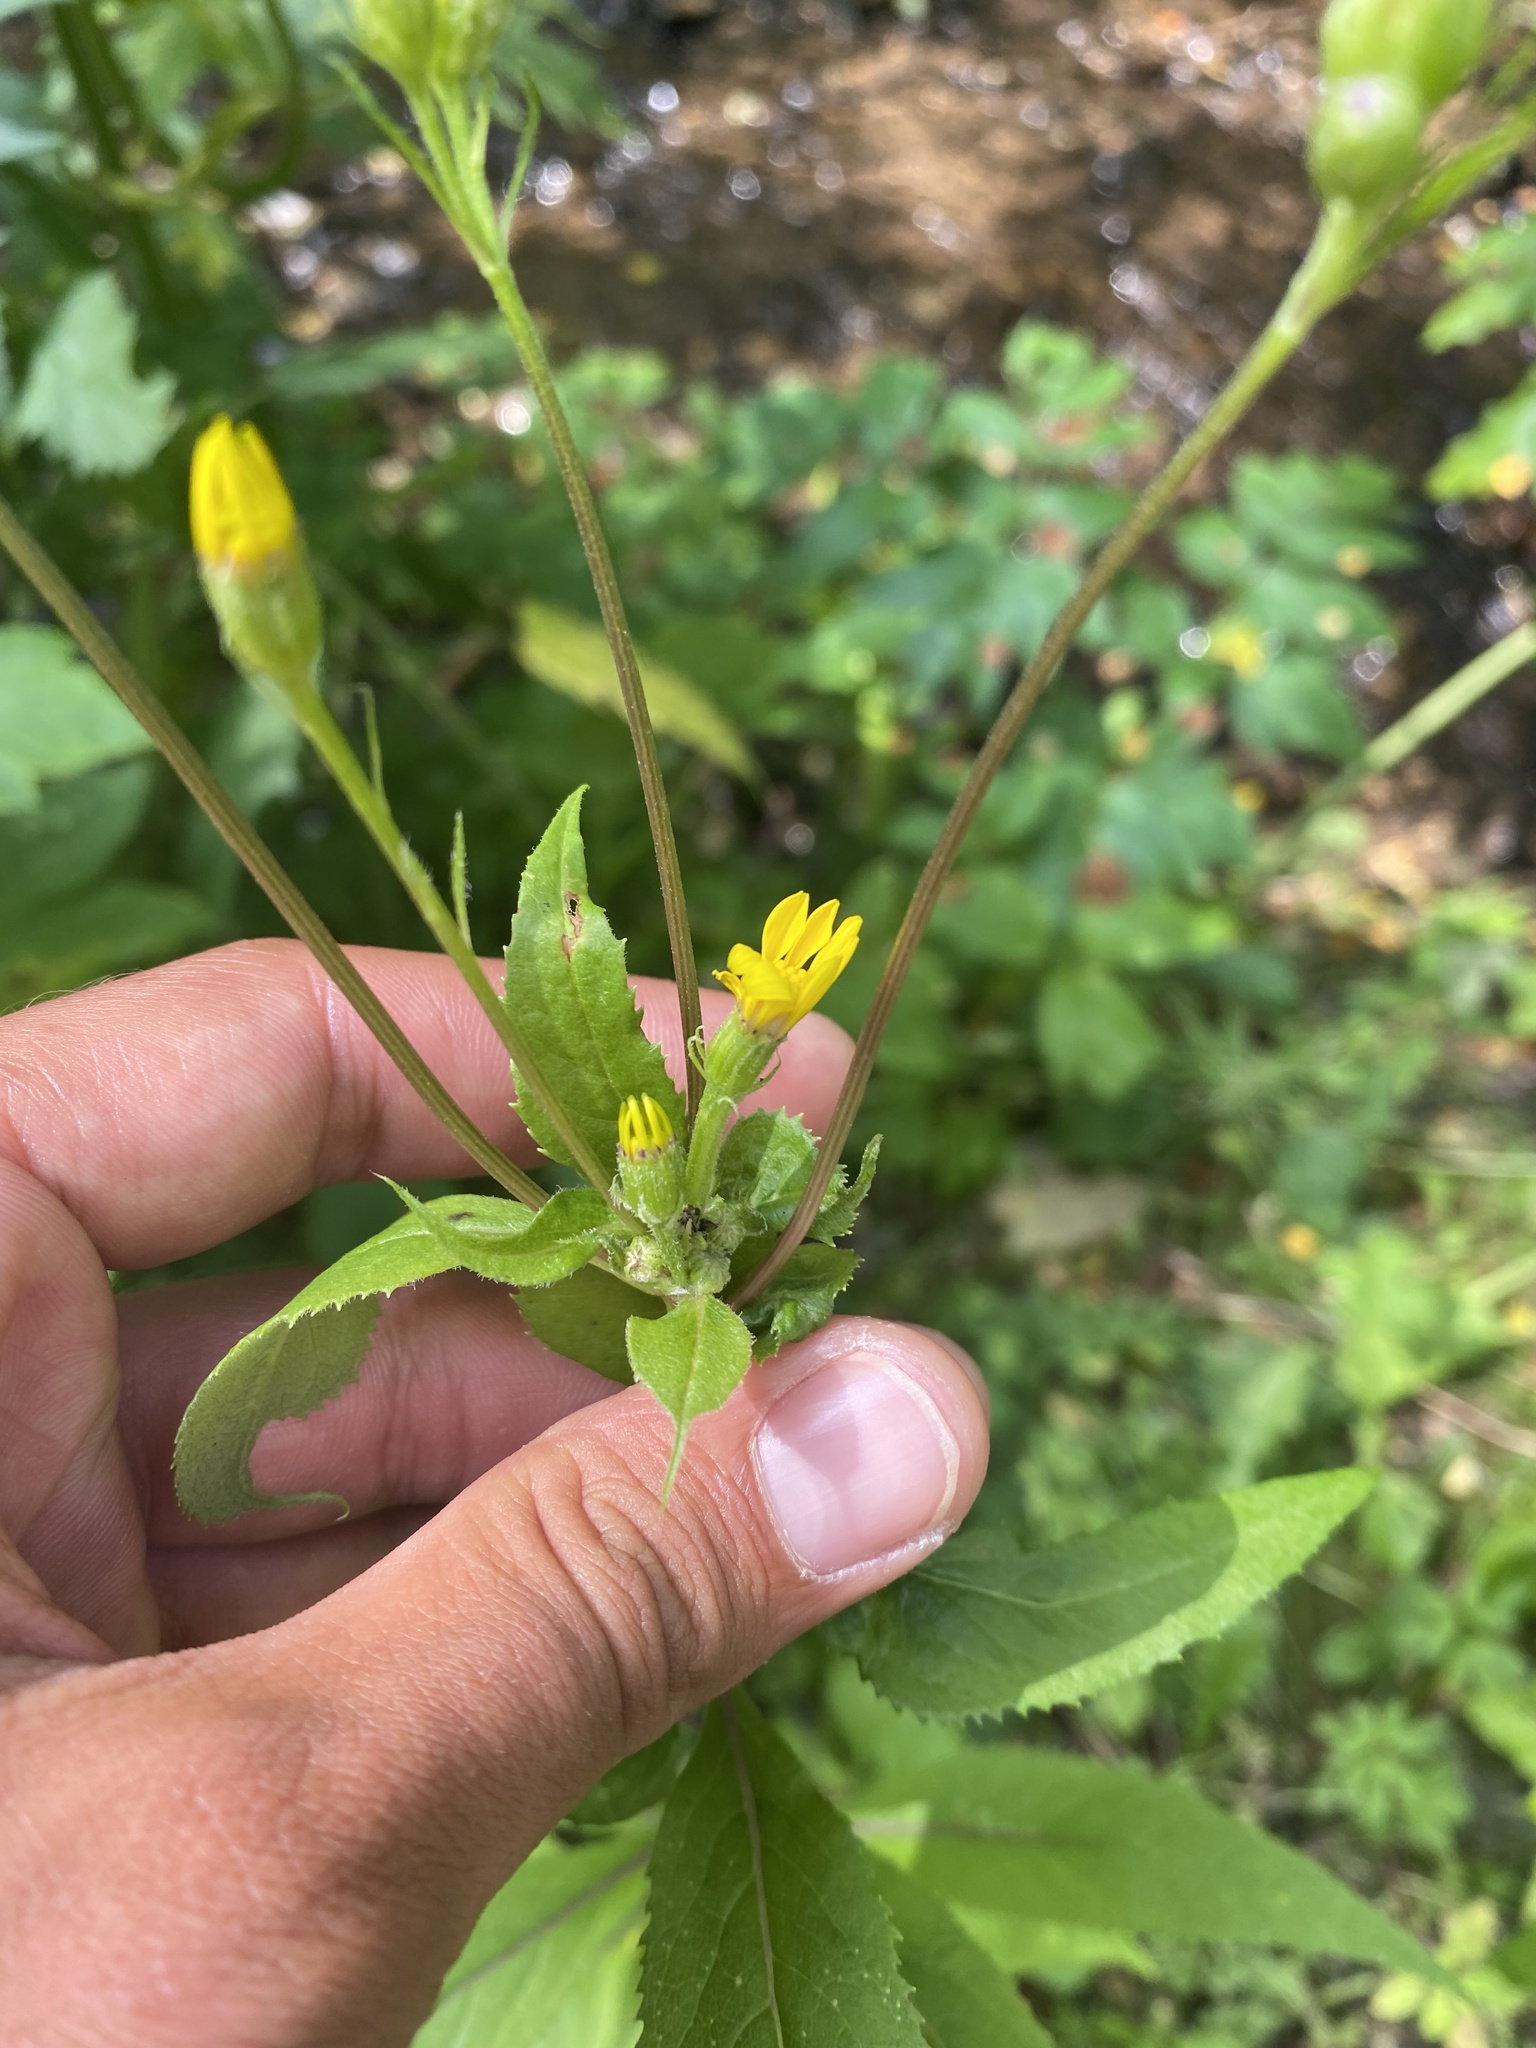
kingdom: Plantae
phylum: Tracheophyta
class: Magnoliopsida
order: Asterales
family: Asteraceae
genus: Senecio
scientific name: Senecio nemorensis
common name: Alpine ragwort
